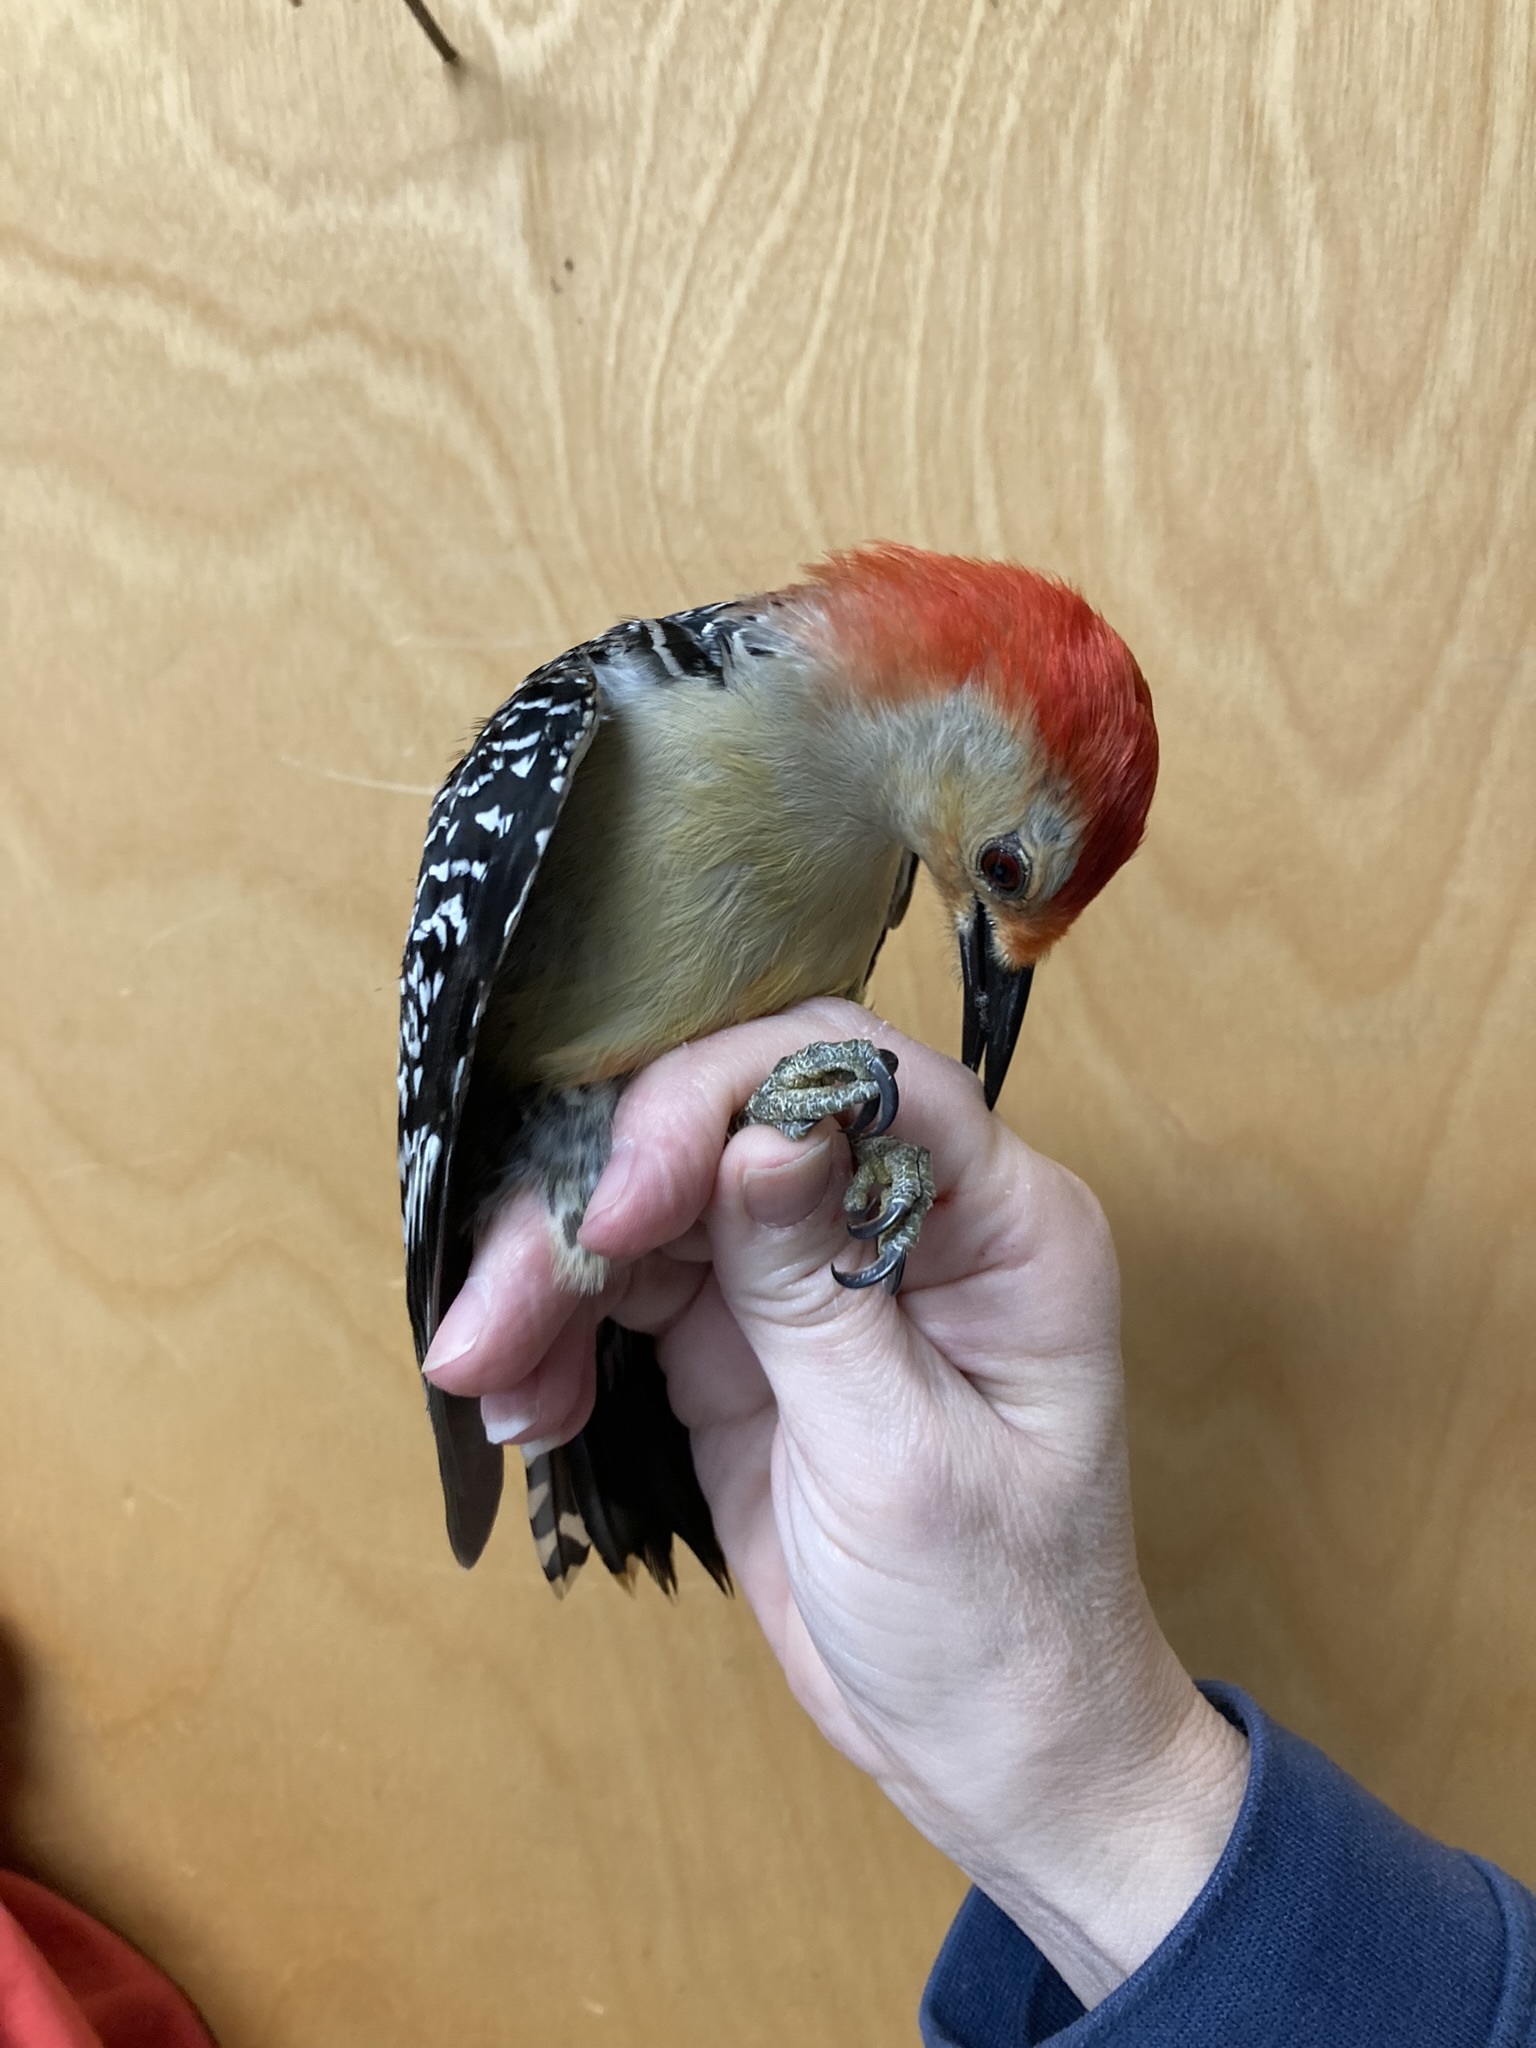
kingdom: Animalia
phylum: Chordata
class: Aves
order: Piciformes
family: Picidae
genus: Melanerpes
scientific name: Melanerpes carolinus
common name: Red-bellied woodpecker
